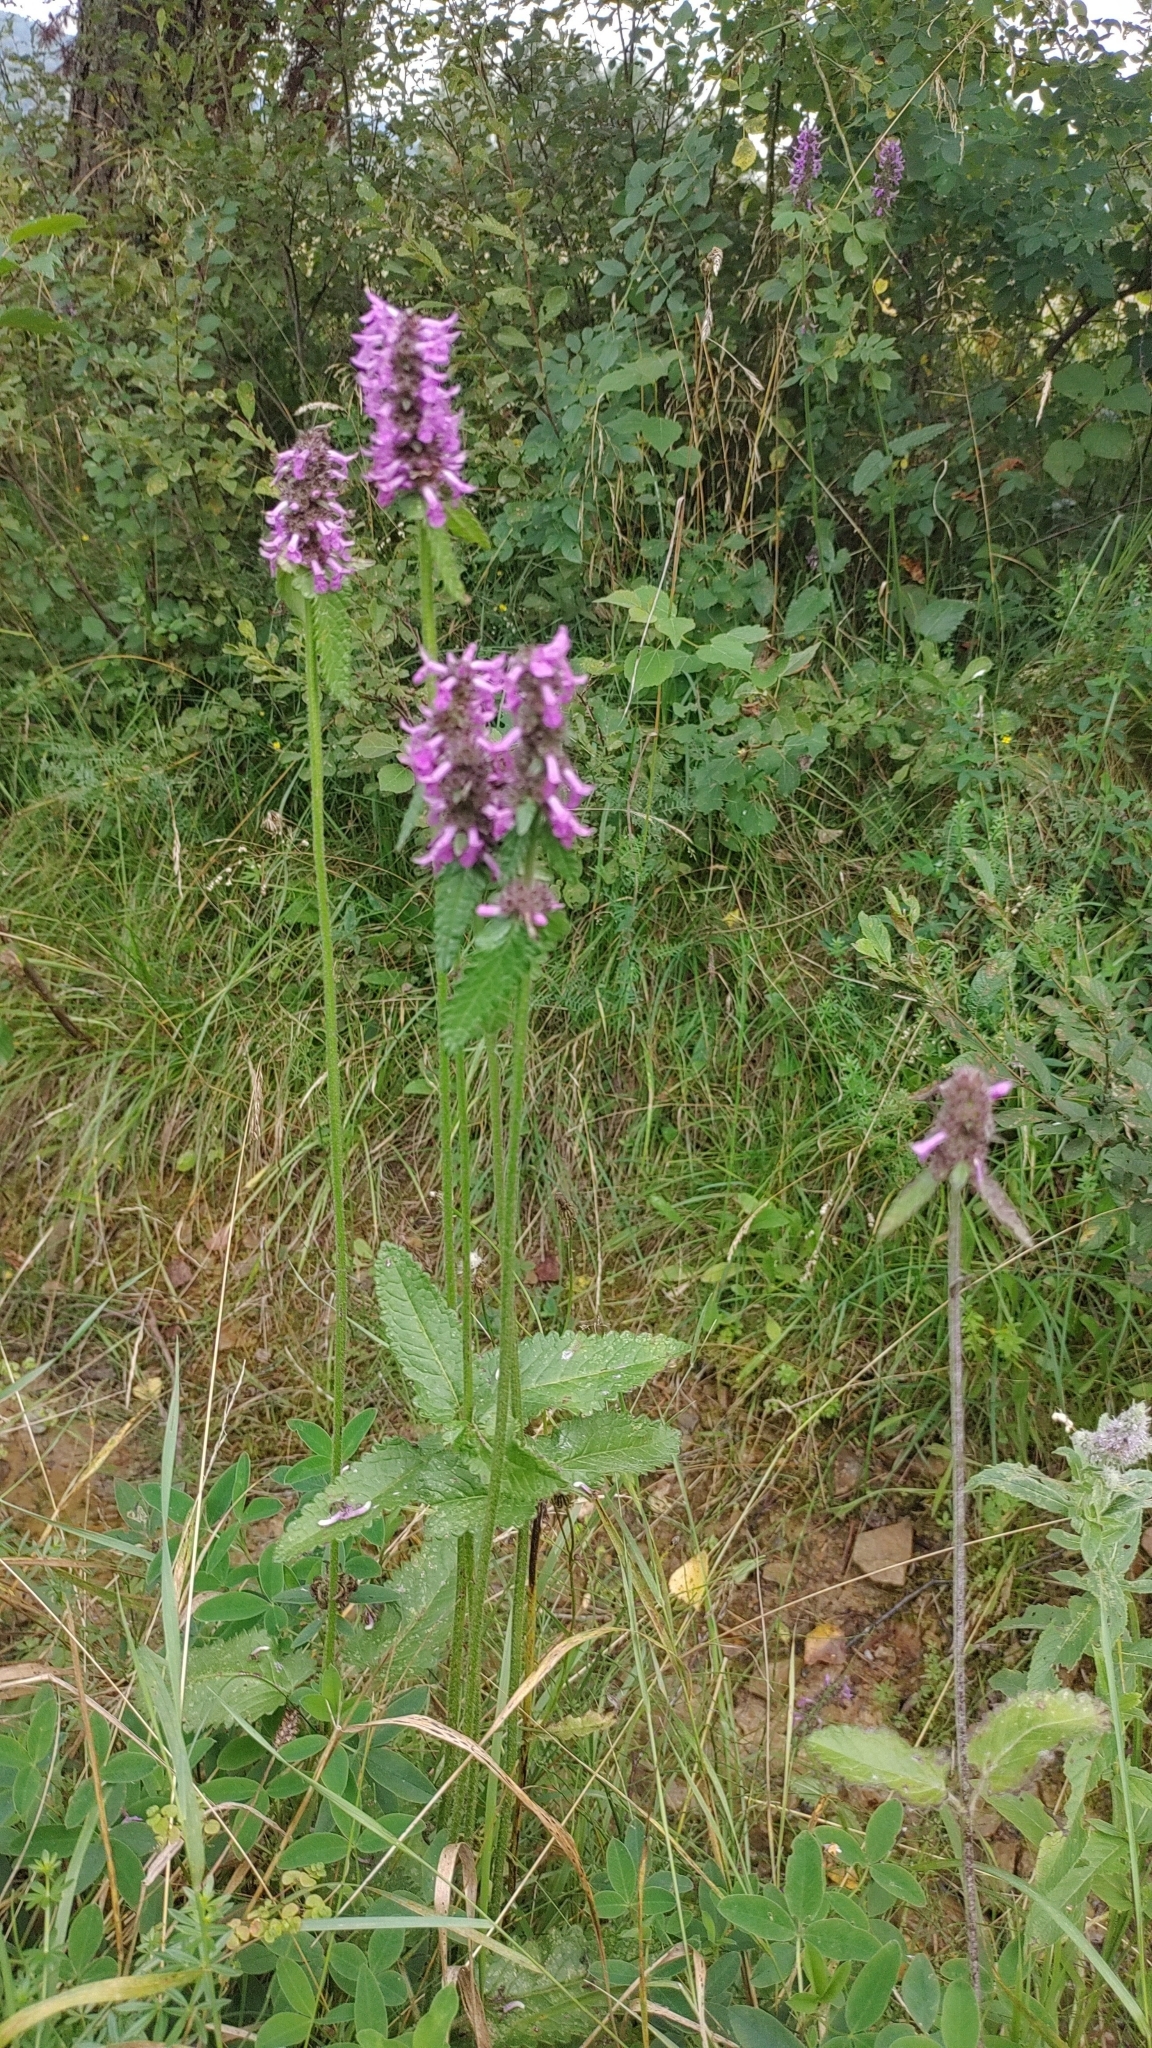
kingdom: Plantae
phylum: Tracheophyta
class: Magnoliopsida
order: Lamiales
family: Lamiaceae
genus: Betonica
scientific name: Betonica officinalis
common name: Bishop's-wort
